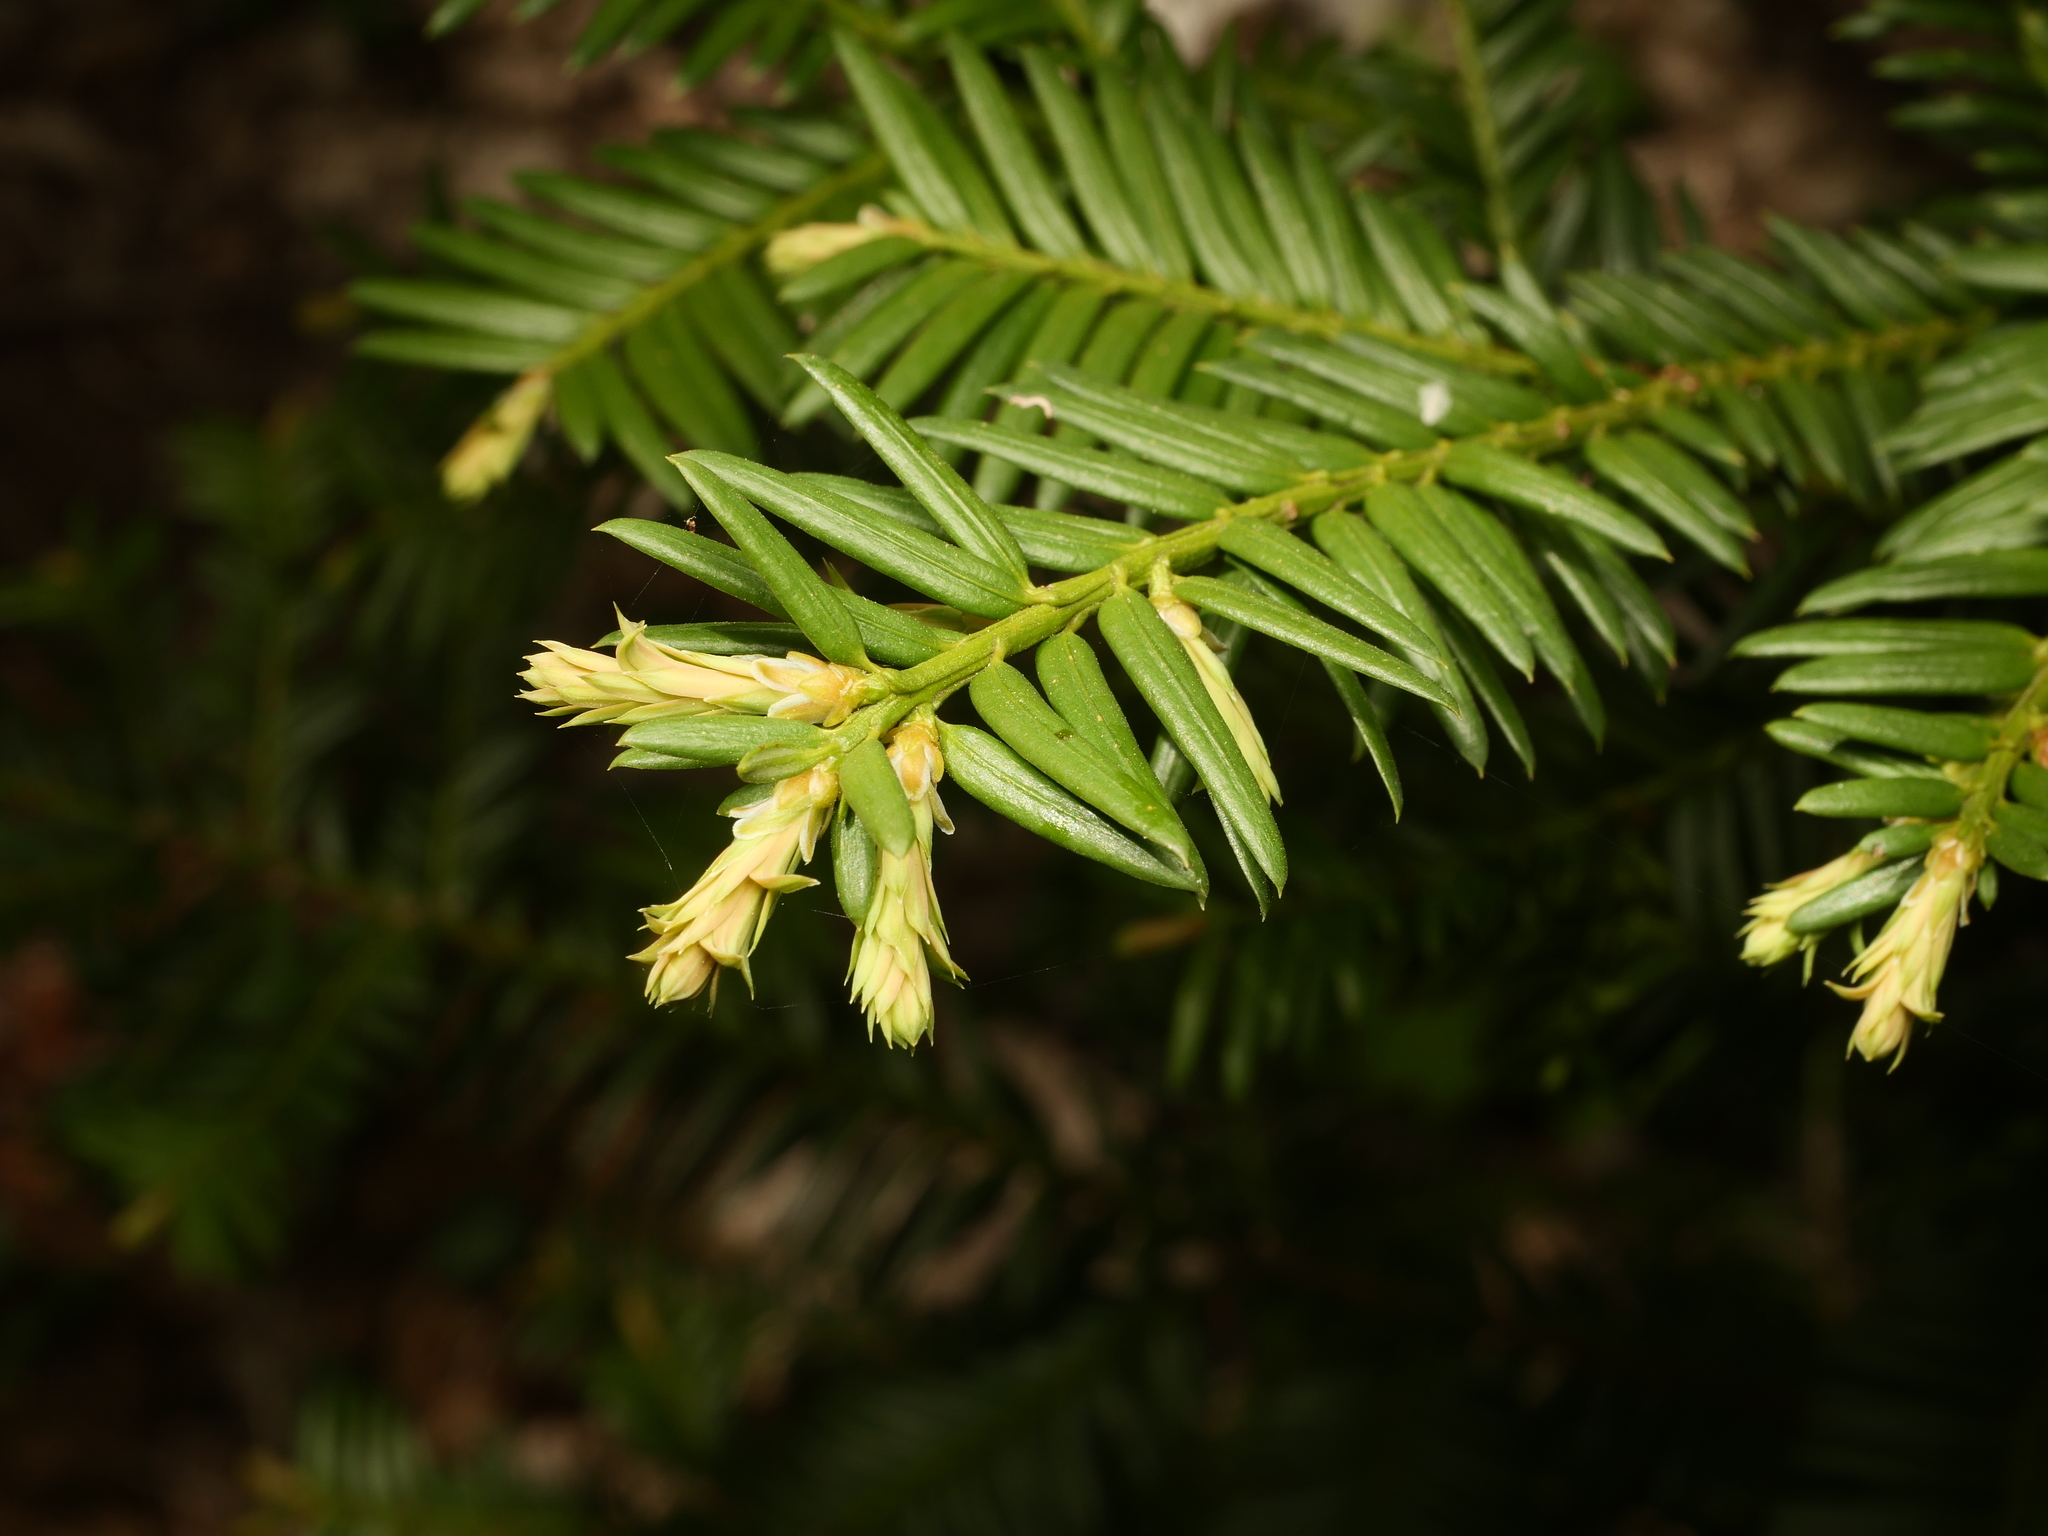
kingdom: Plantae
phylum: Tracheophyta
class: Pinopsida
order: Pinales
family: Taxaceae
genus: Taxus
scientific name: Taxus baccata
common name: Yew
